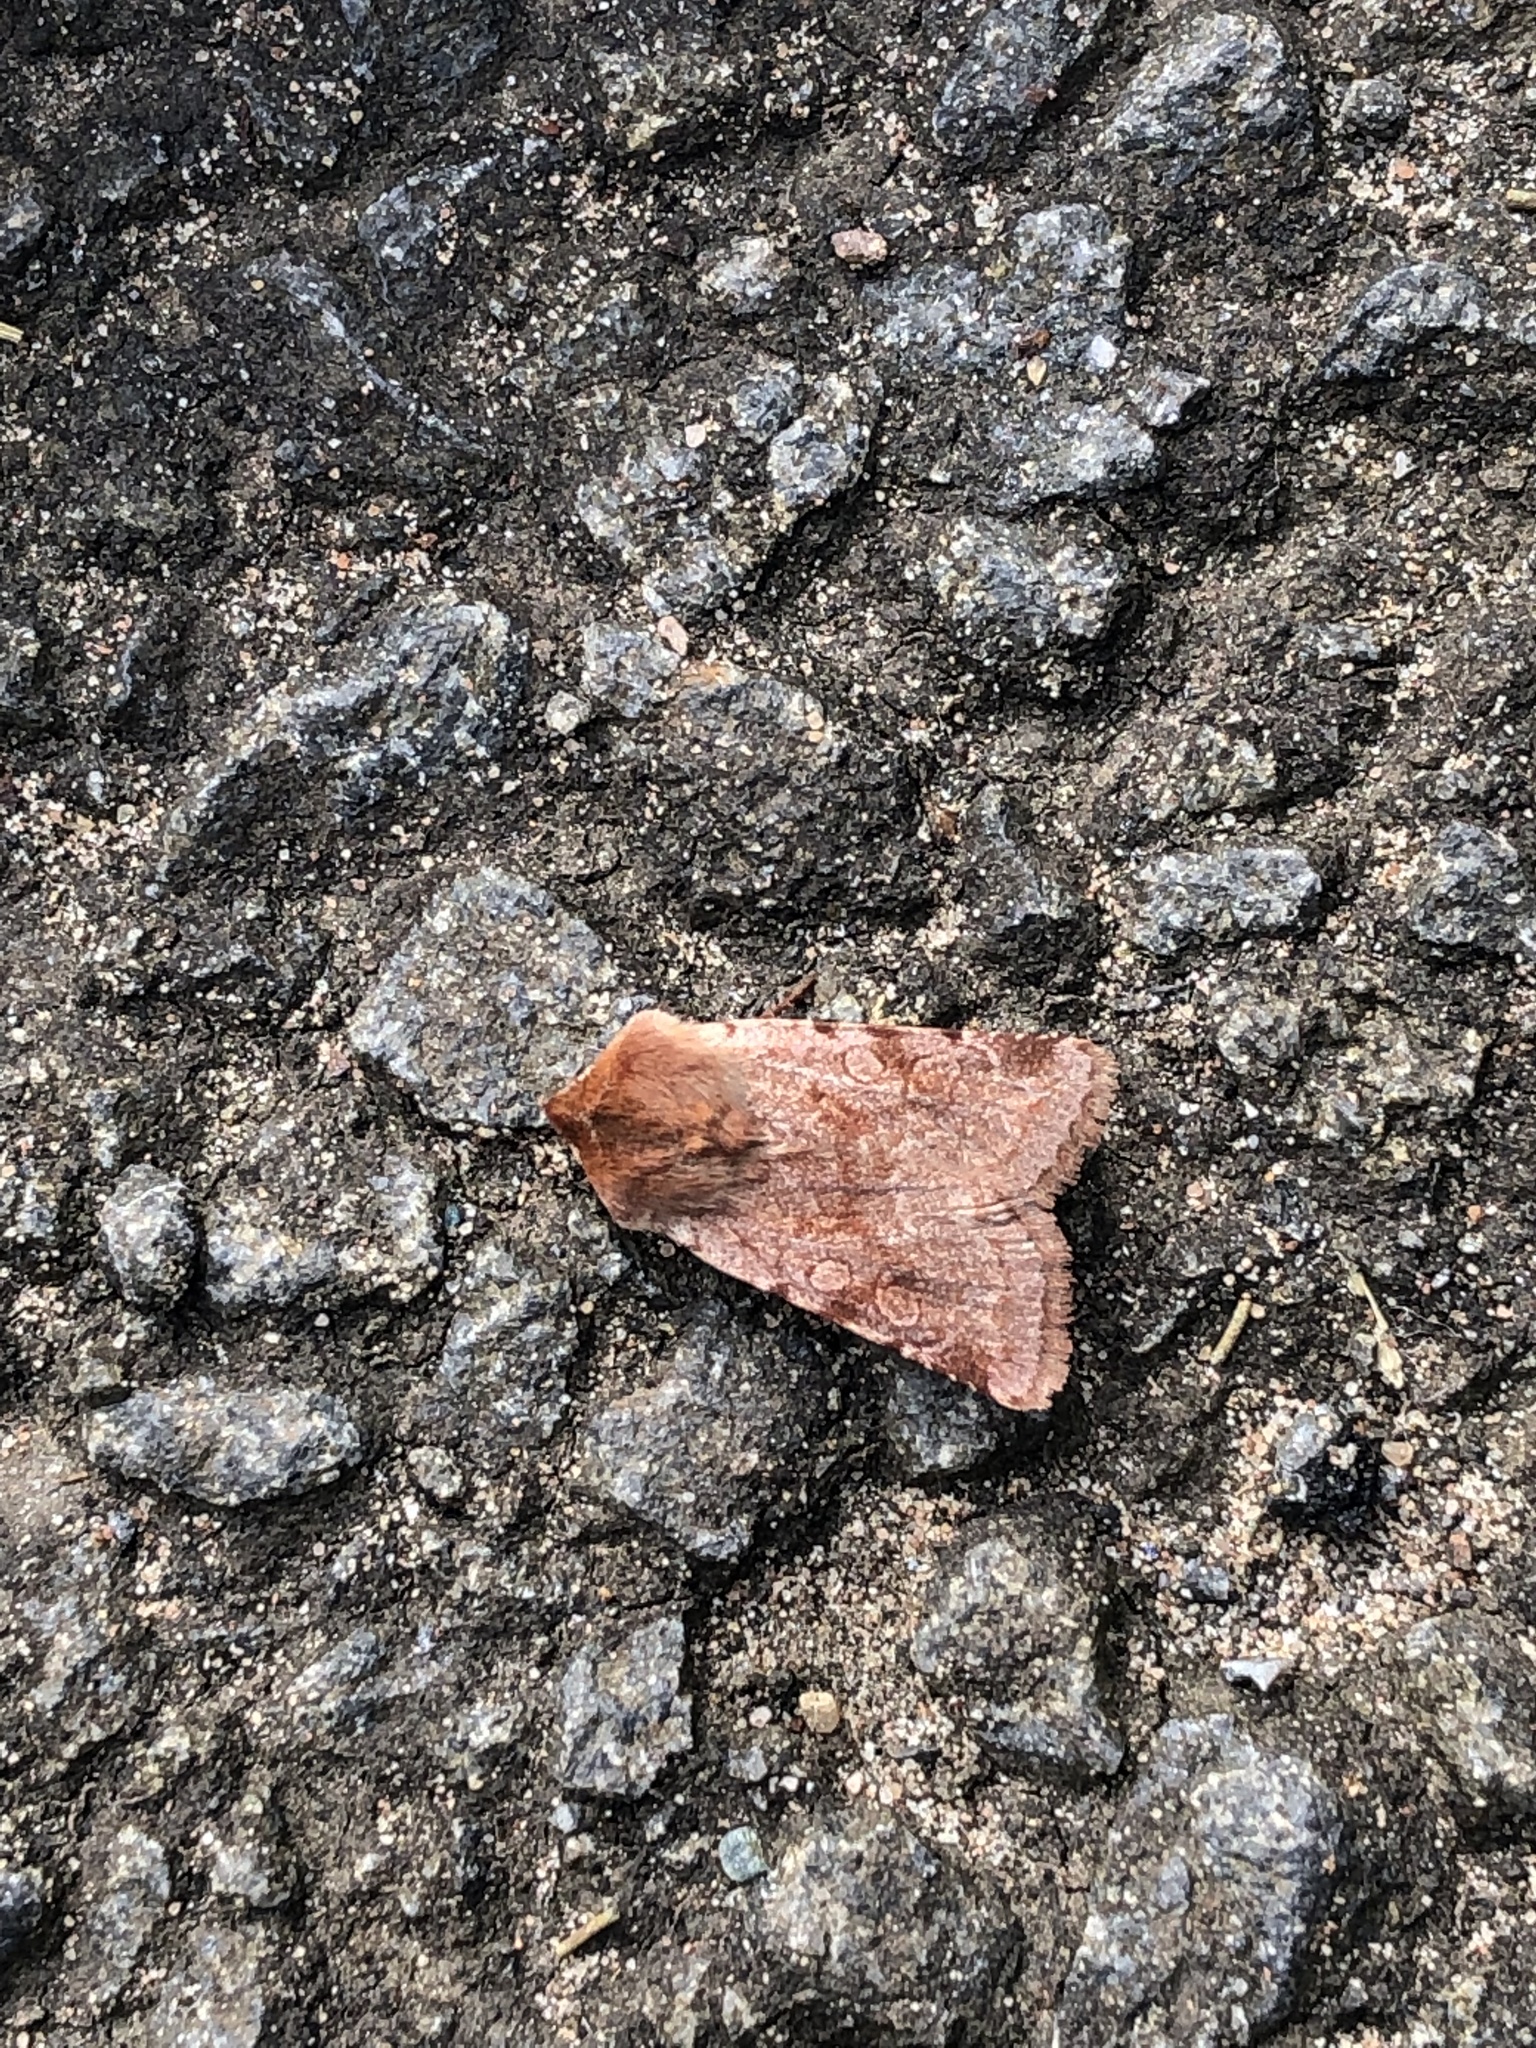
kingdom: Animalia
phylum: Arthropoda
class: Insecta
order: Lepidoptera
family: Noctuidae
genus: Cerastis
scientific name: Cerastis rubricosa
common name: Red chestnut
